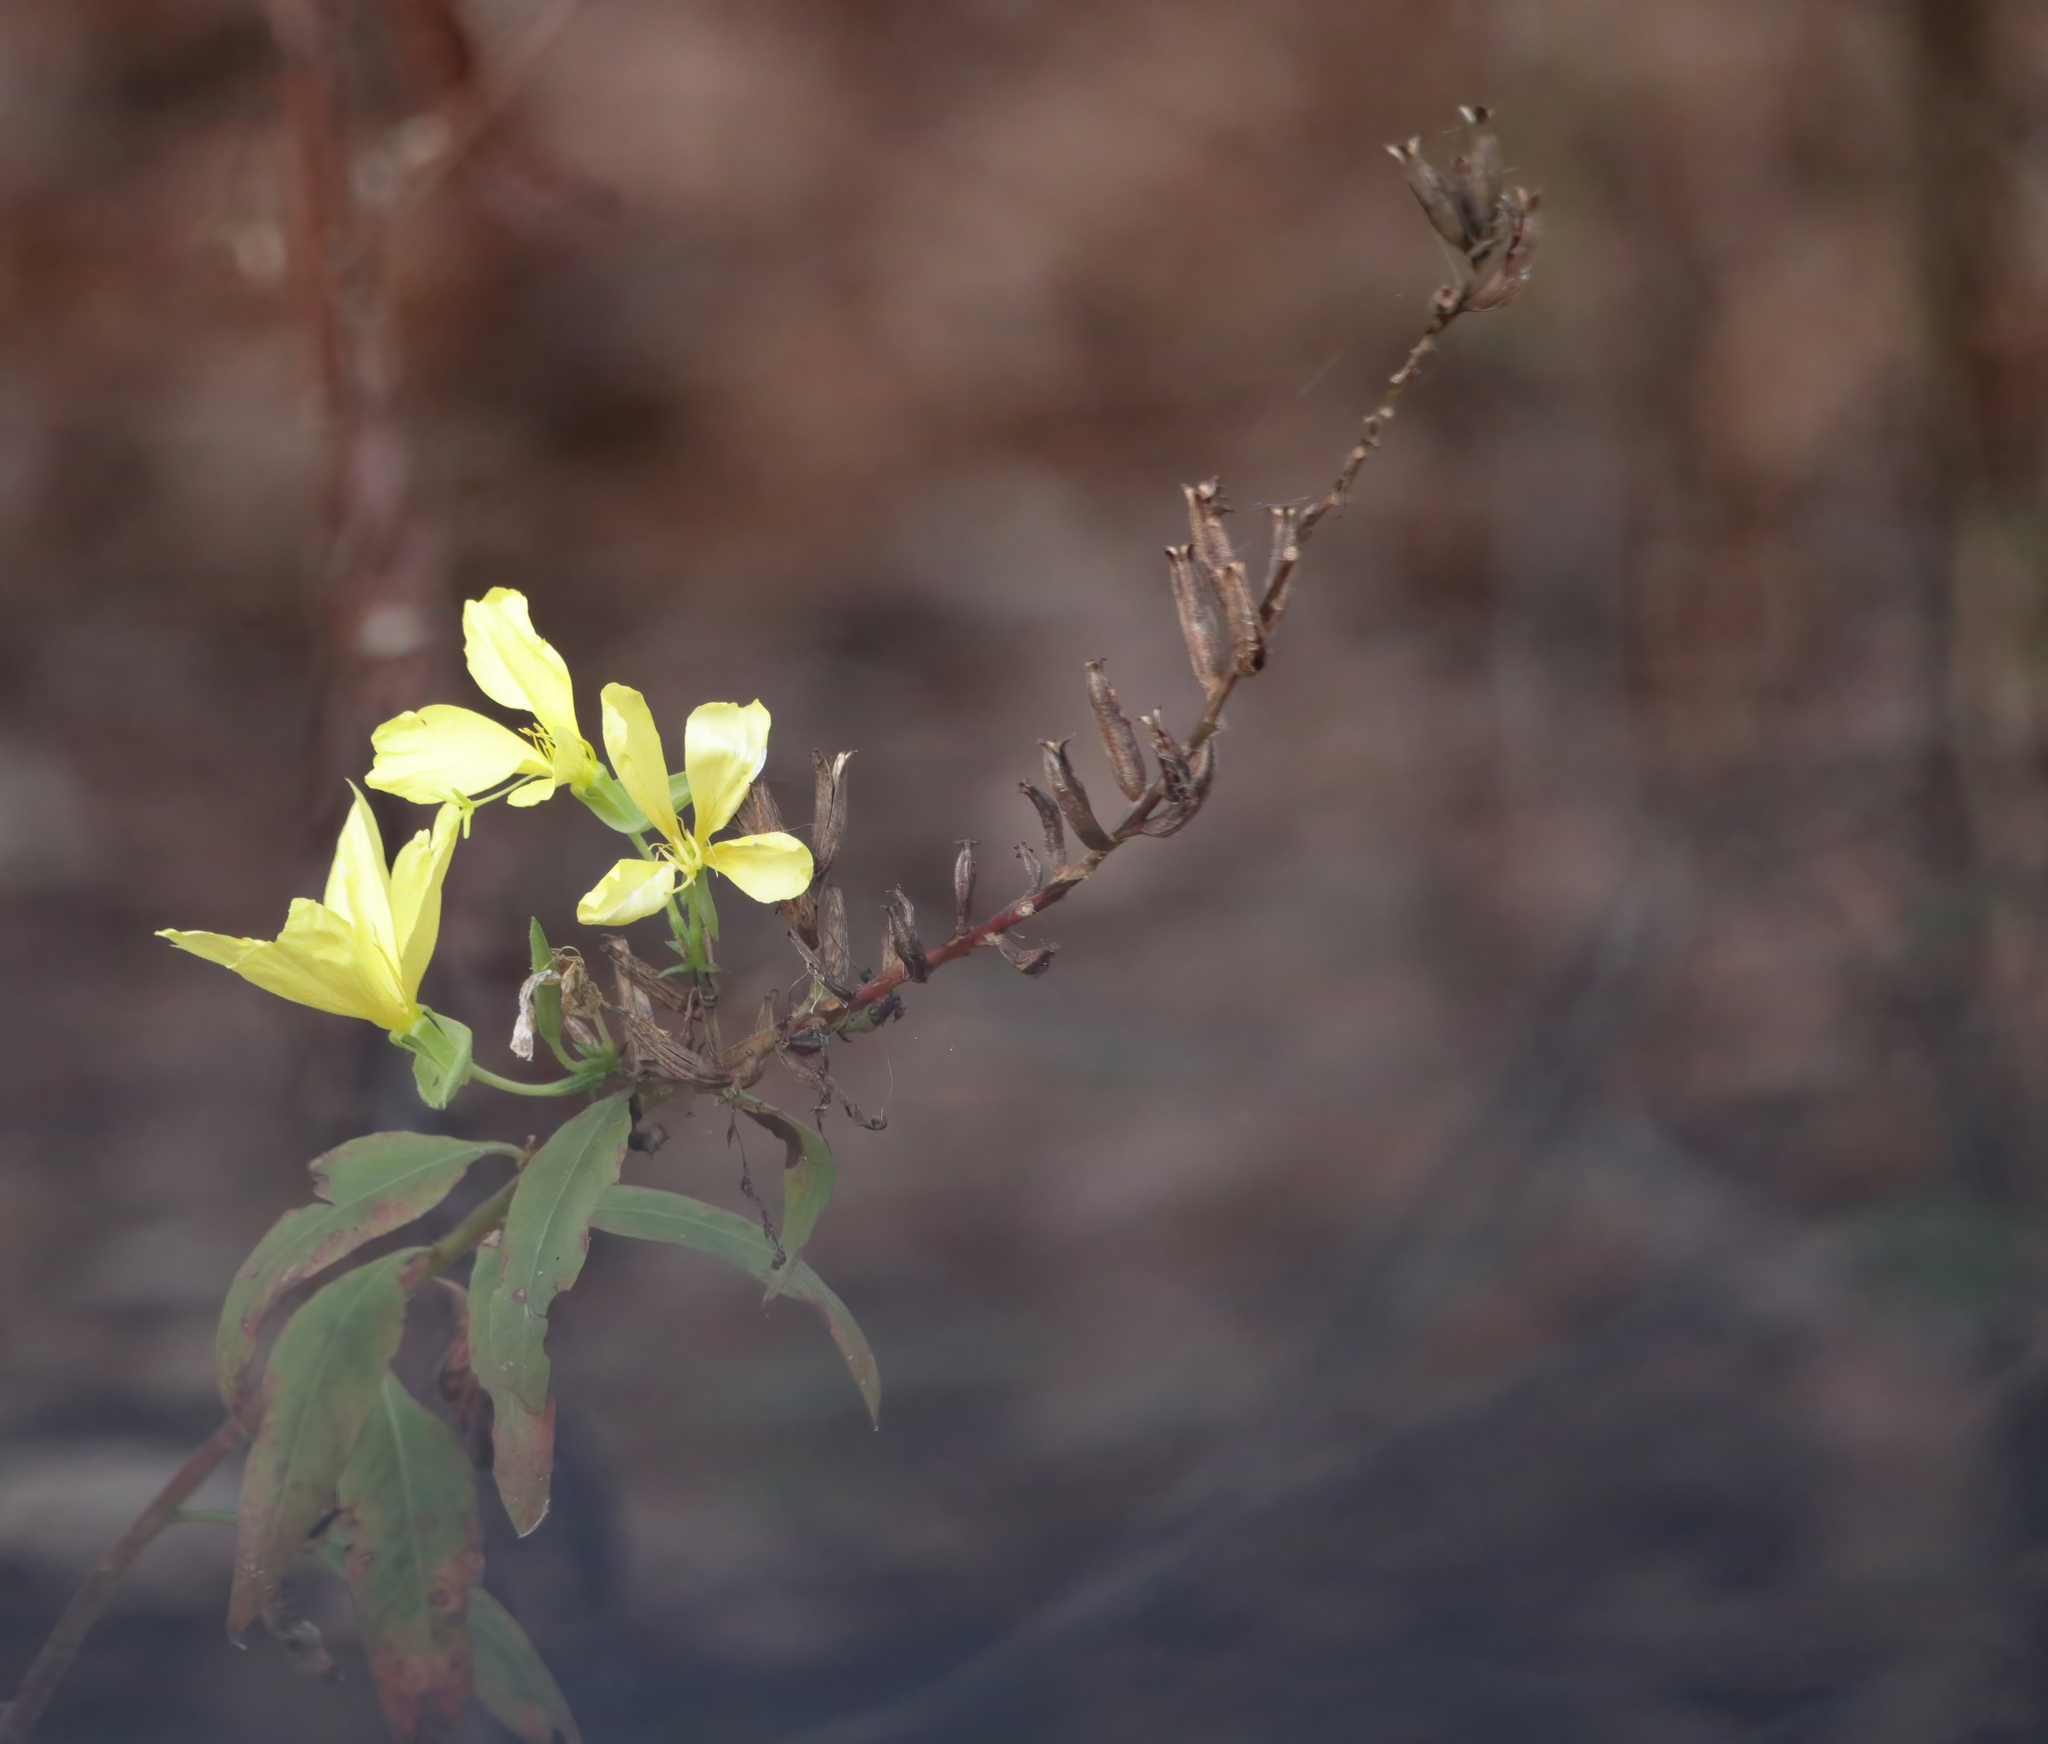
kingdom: Plantae
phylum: Tracheophyta
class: Magnoliopsida
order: Myrtales
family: Onagraceae
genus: Oenothera
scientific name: Oenothera biennis
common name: Common evening-primrose
